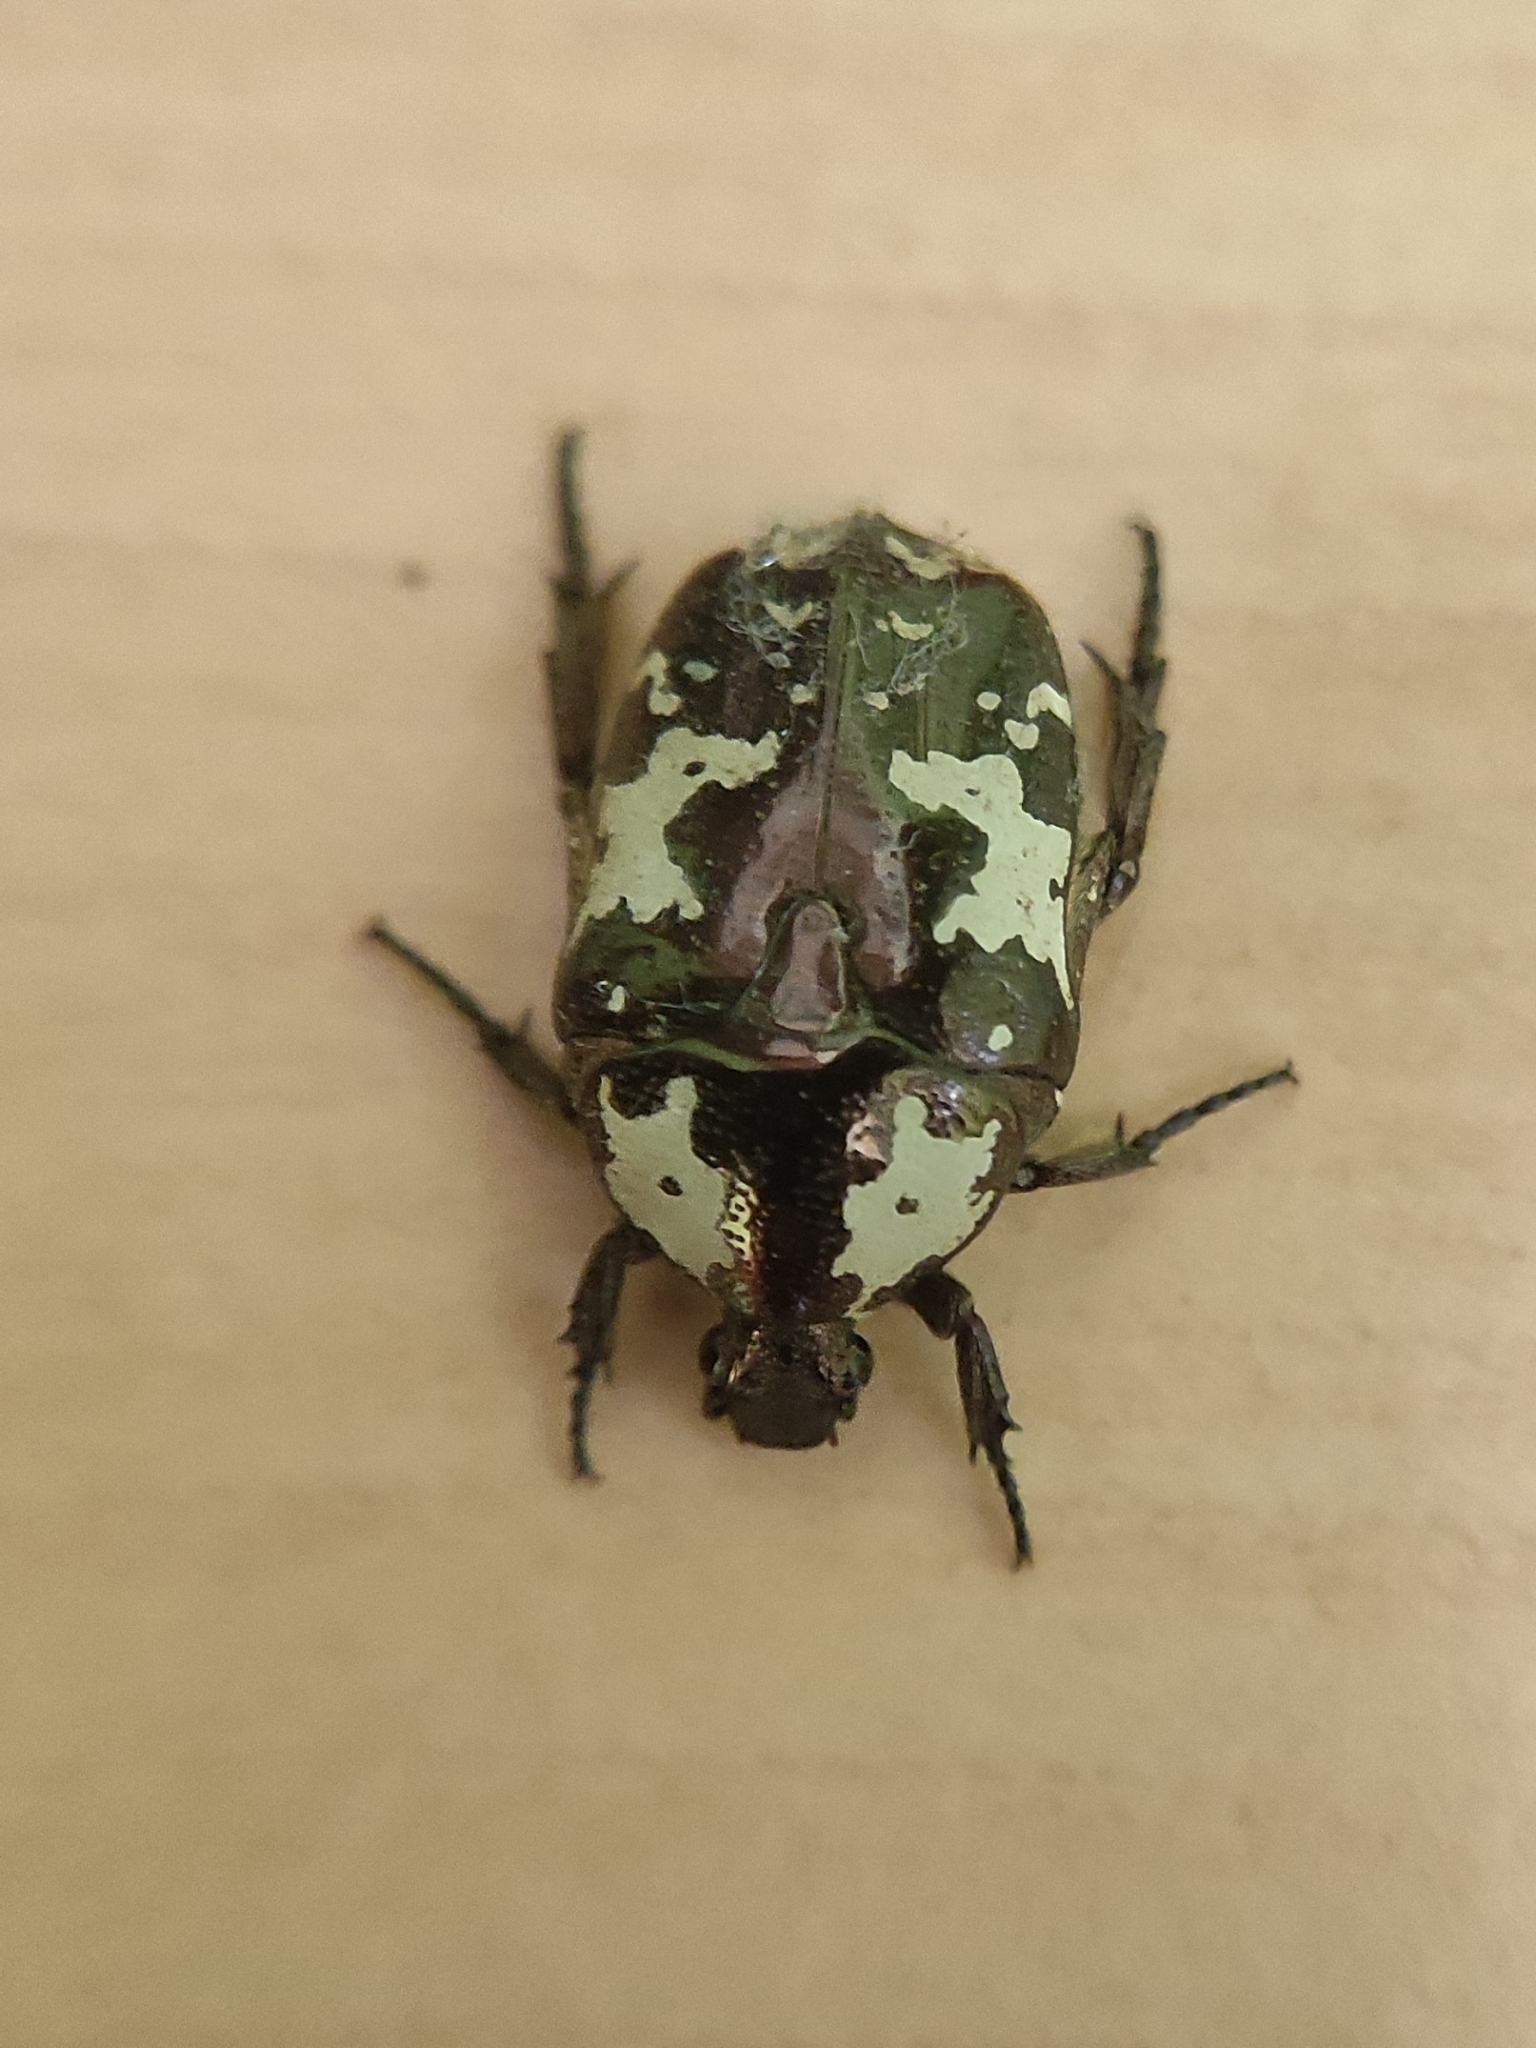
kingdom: Animalia
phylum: Arthropoda
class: Insecta
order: Coleoptera
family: Scarabaeidae
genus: Protaetia
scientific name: Protaetia aurichalcea
